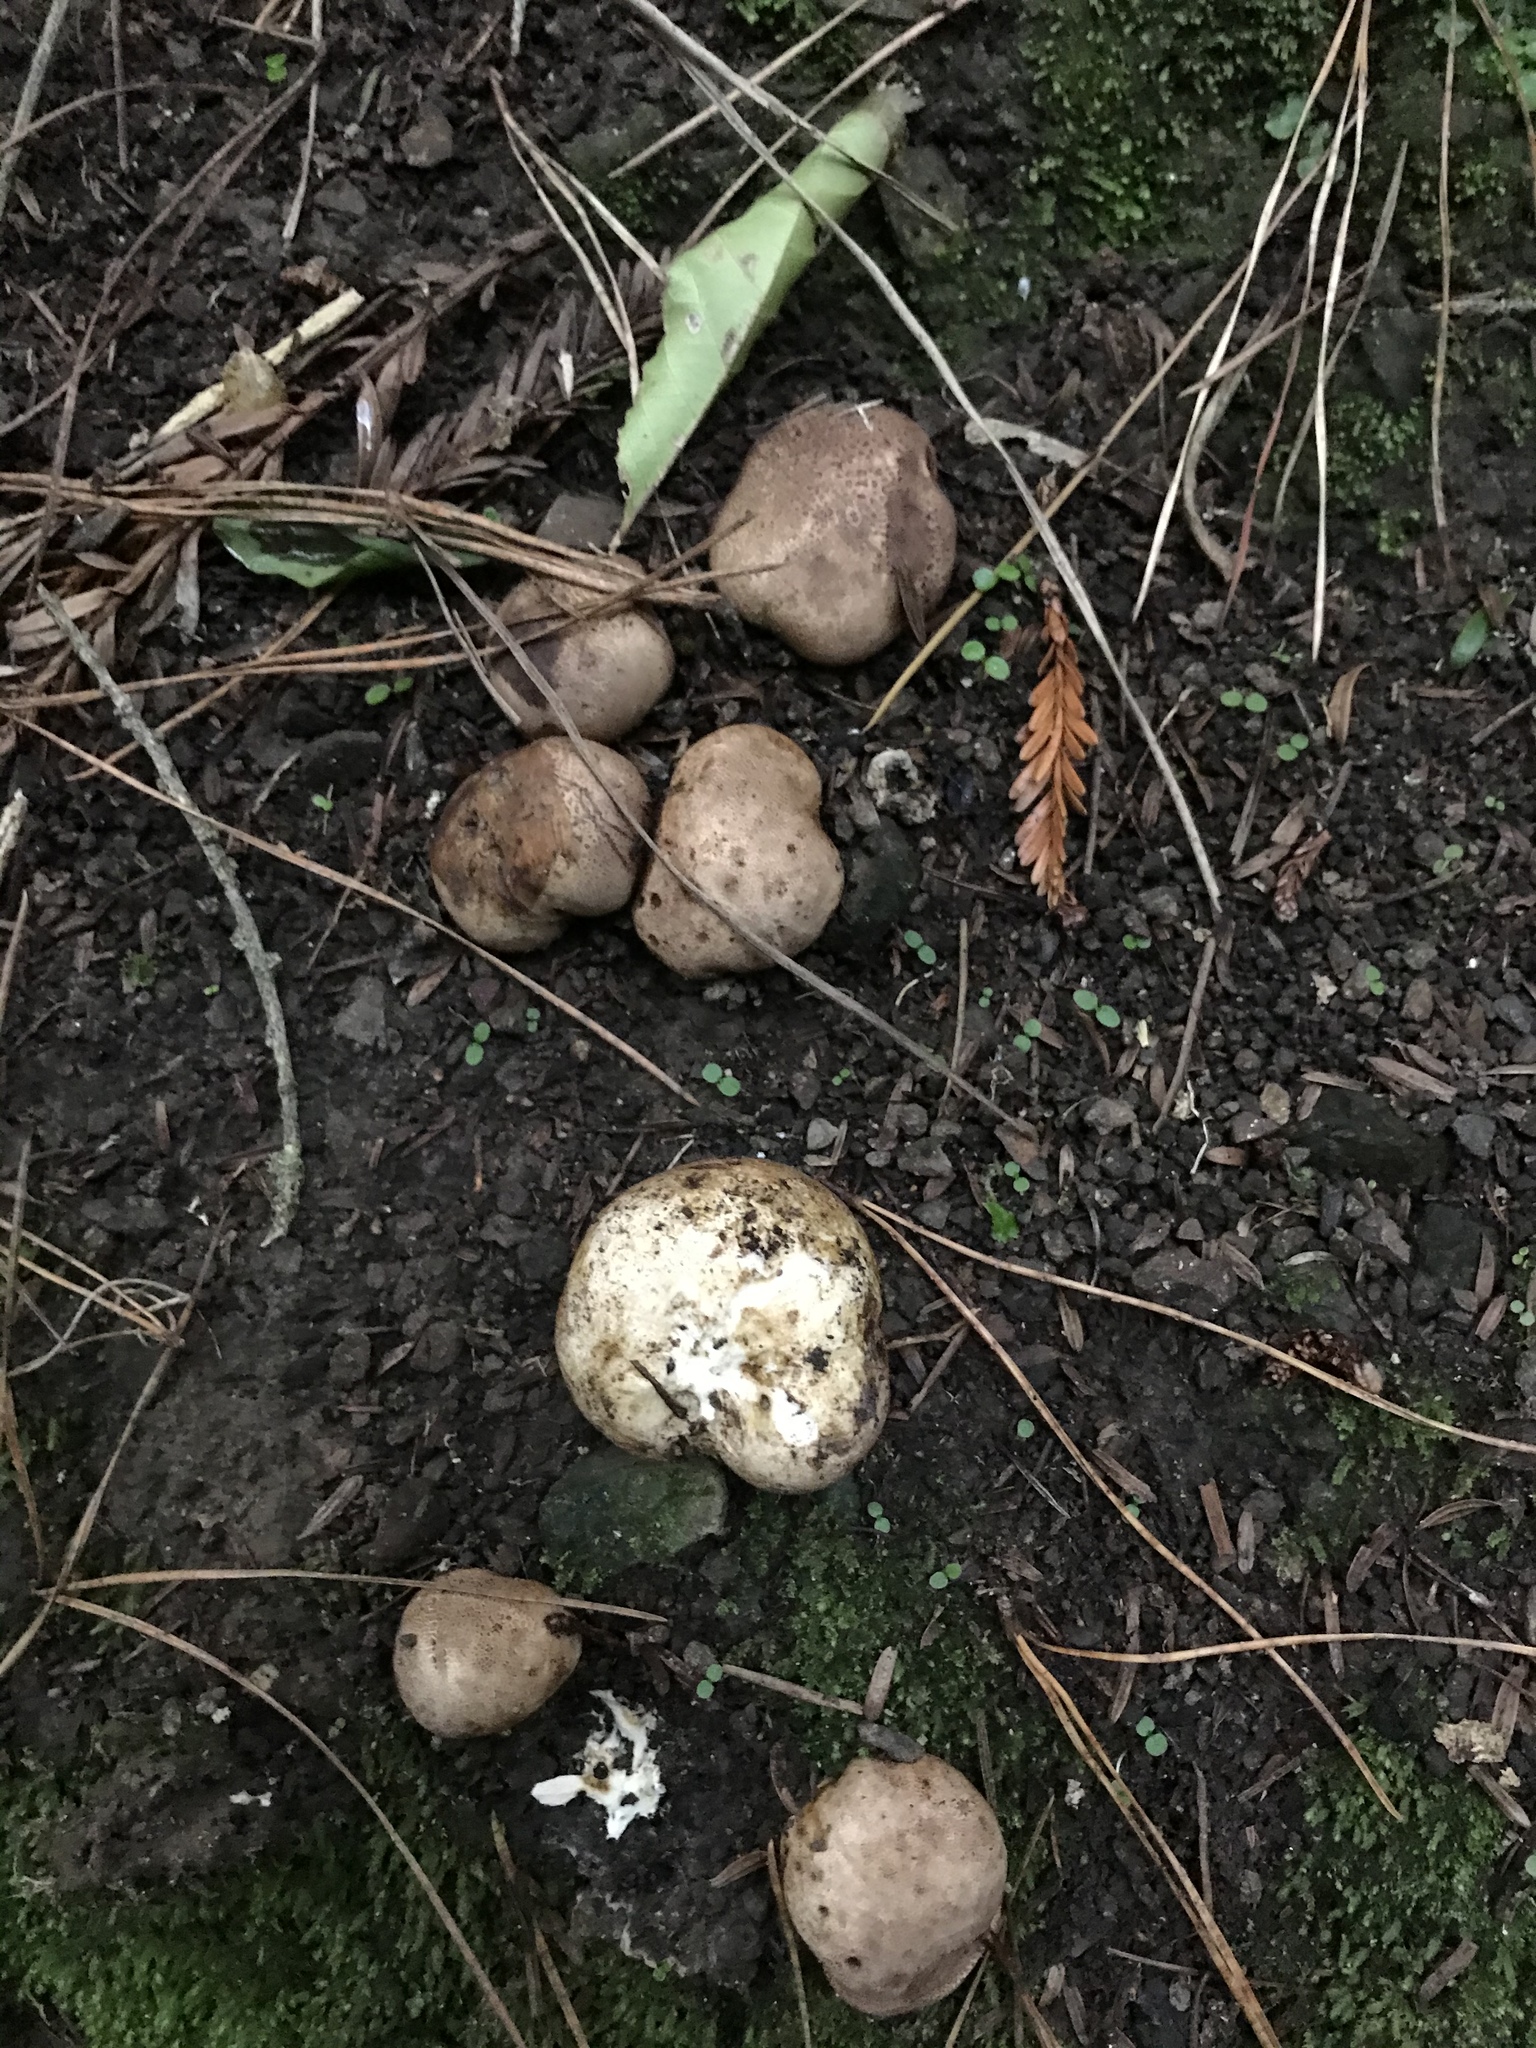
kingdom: Fungi
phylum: Basidiomycota
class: Agaricomycetes
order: Boletales
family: Sclerodermataceae
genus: Scleroderma
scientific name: Scleroderma bovista
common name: Potato earthball
